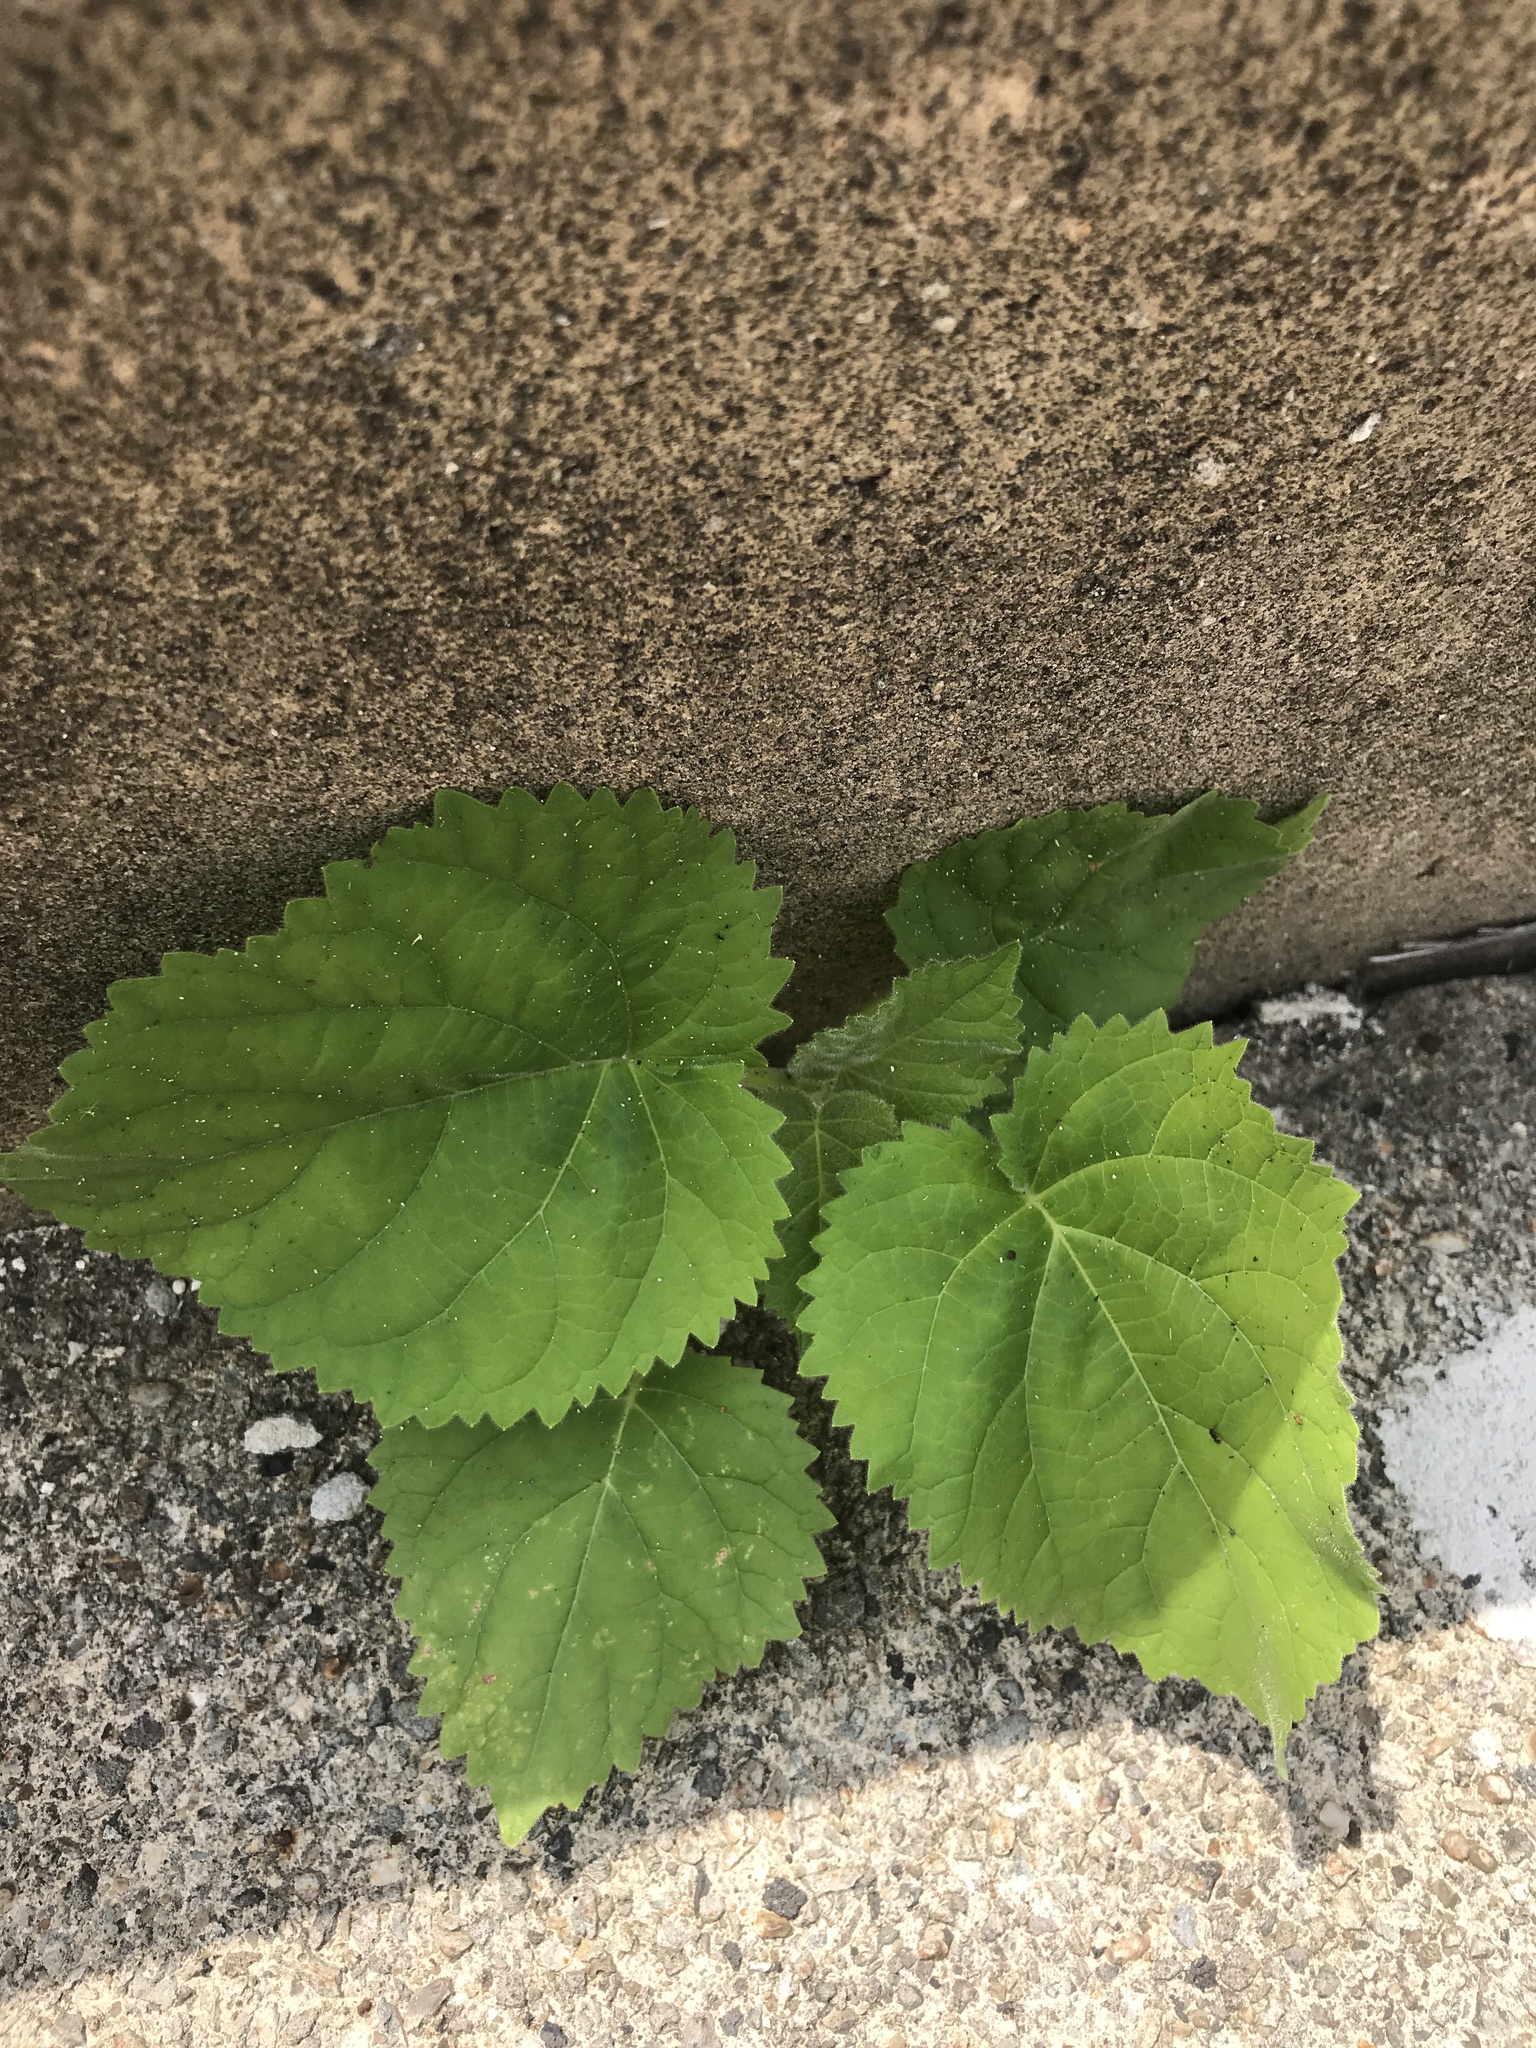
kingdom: Plantae
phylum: Tracheophyta
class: Magnoliopsida
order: Lamiales
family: Paulowniaceae
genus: Paulownia
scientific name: Paulownia tomentosa
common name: Foxglove-tree
